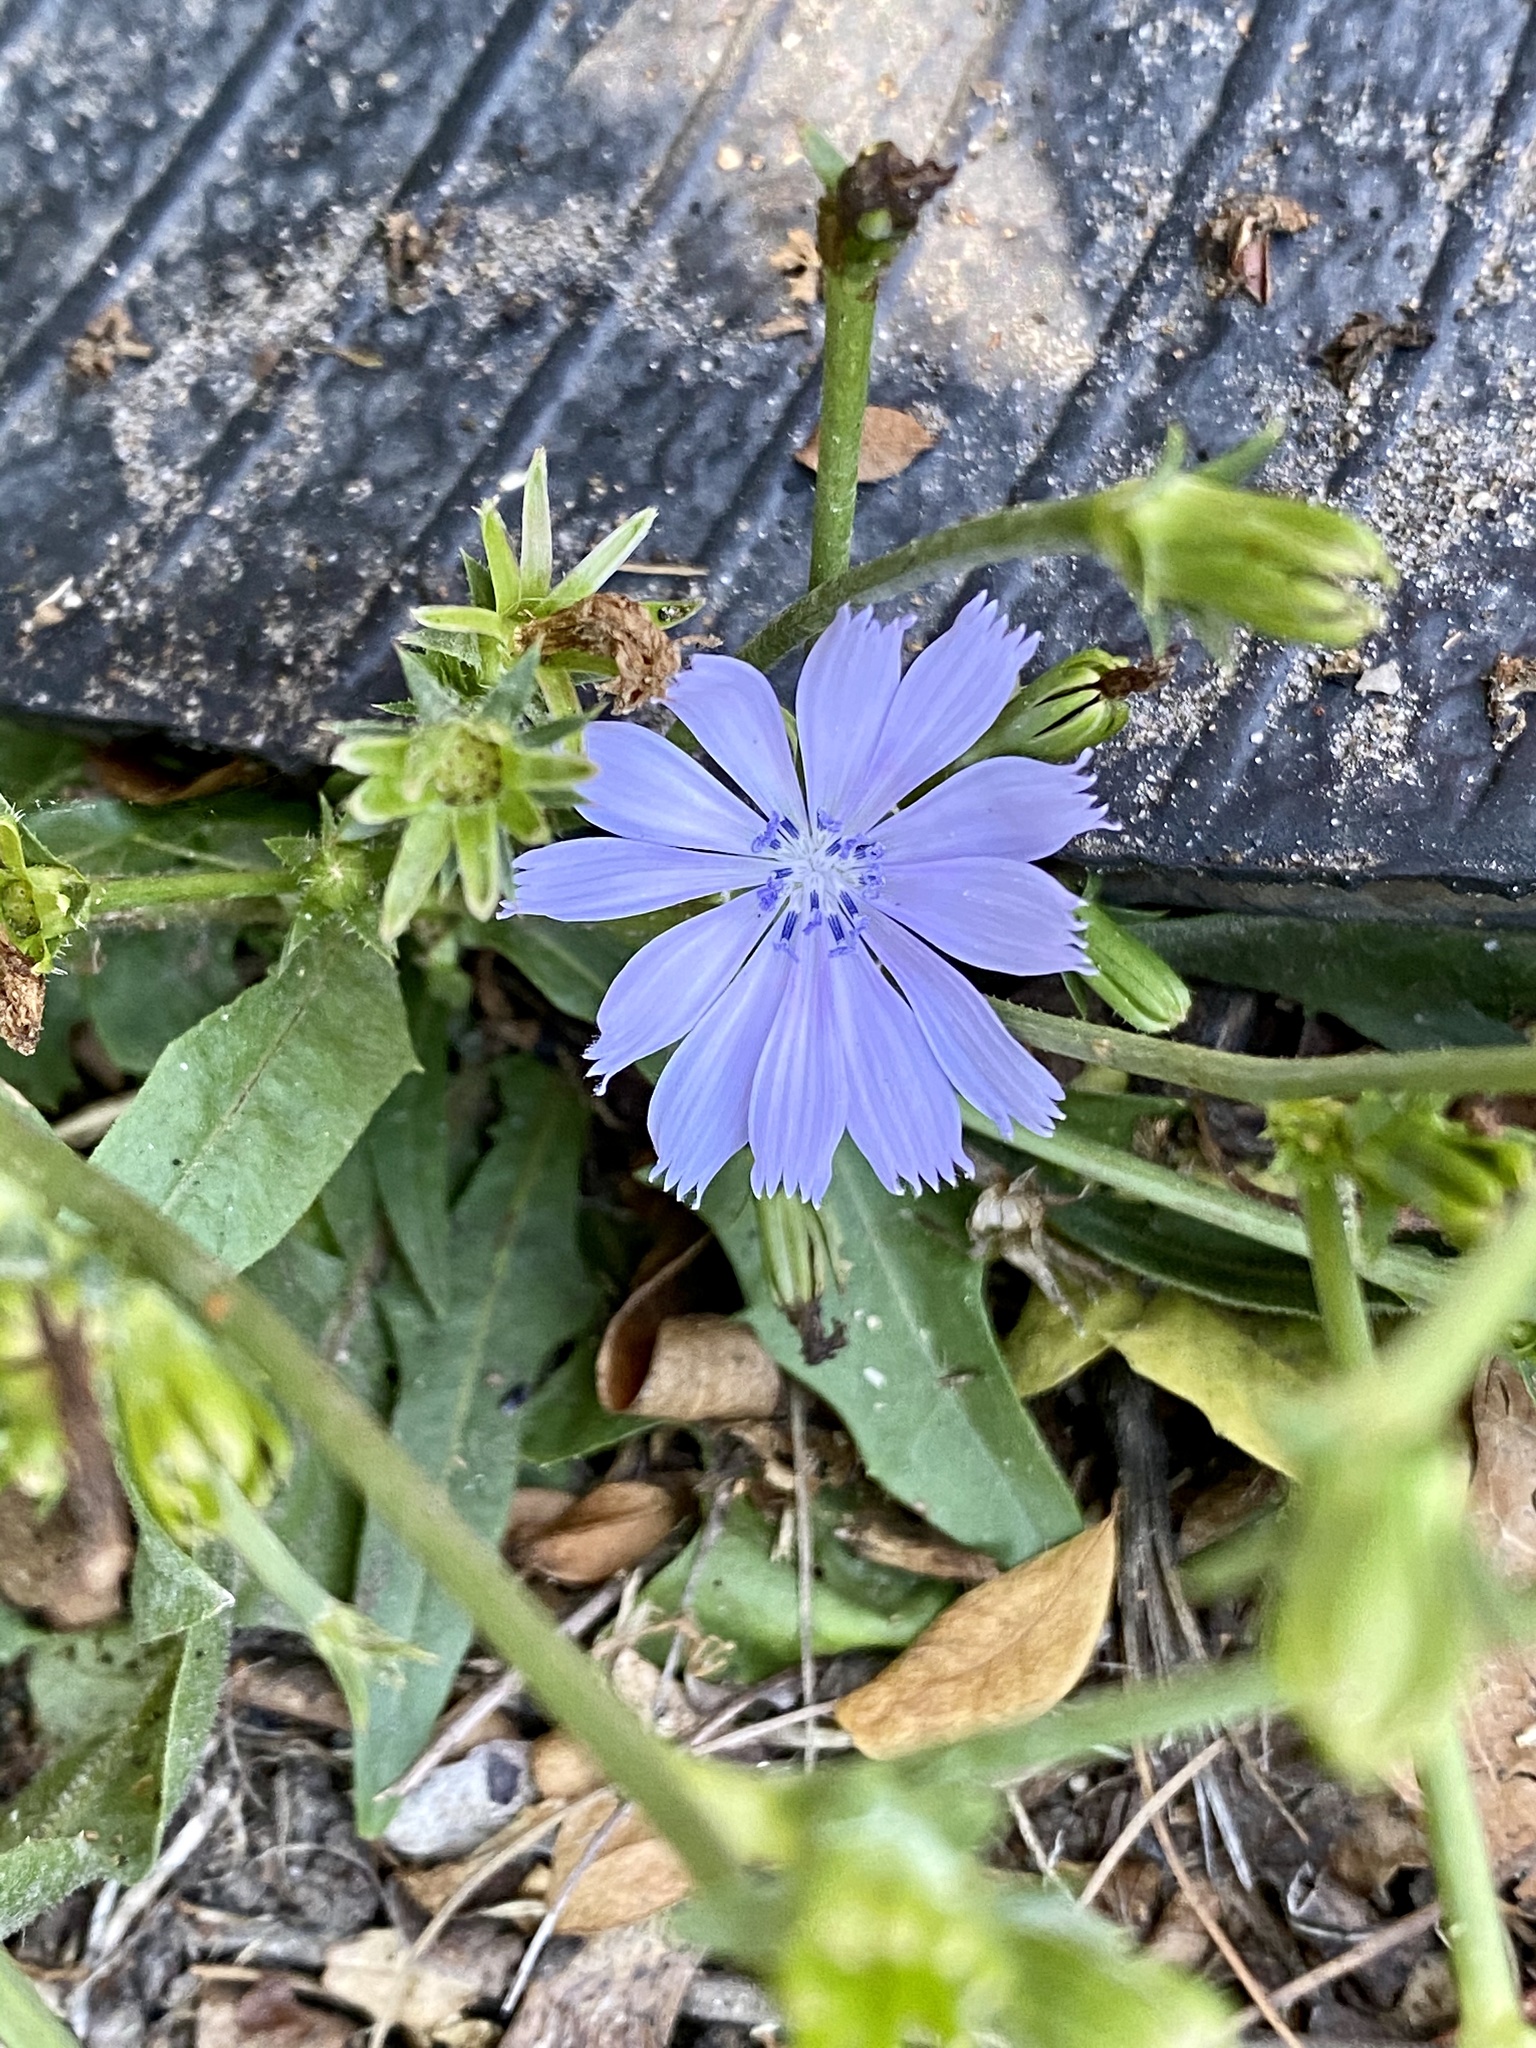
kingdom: Plantae
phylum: Tracheophyta
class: Magnoliopsida
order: Asterales
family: Asteraceae
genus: Cichorium
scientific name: Cichorium intybus
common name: Chicory
